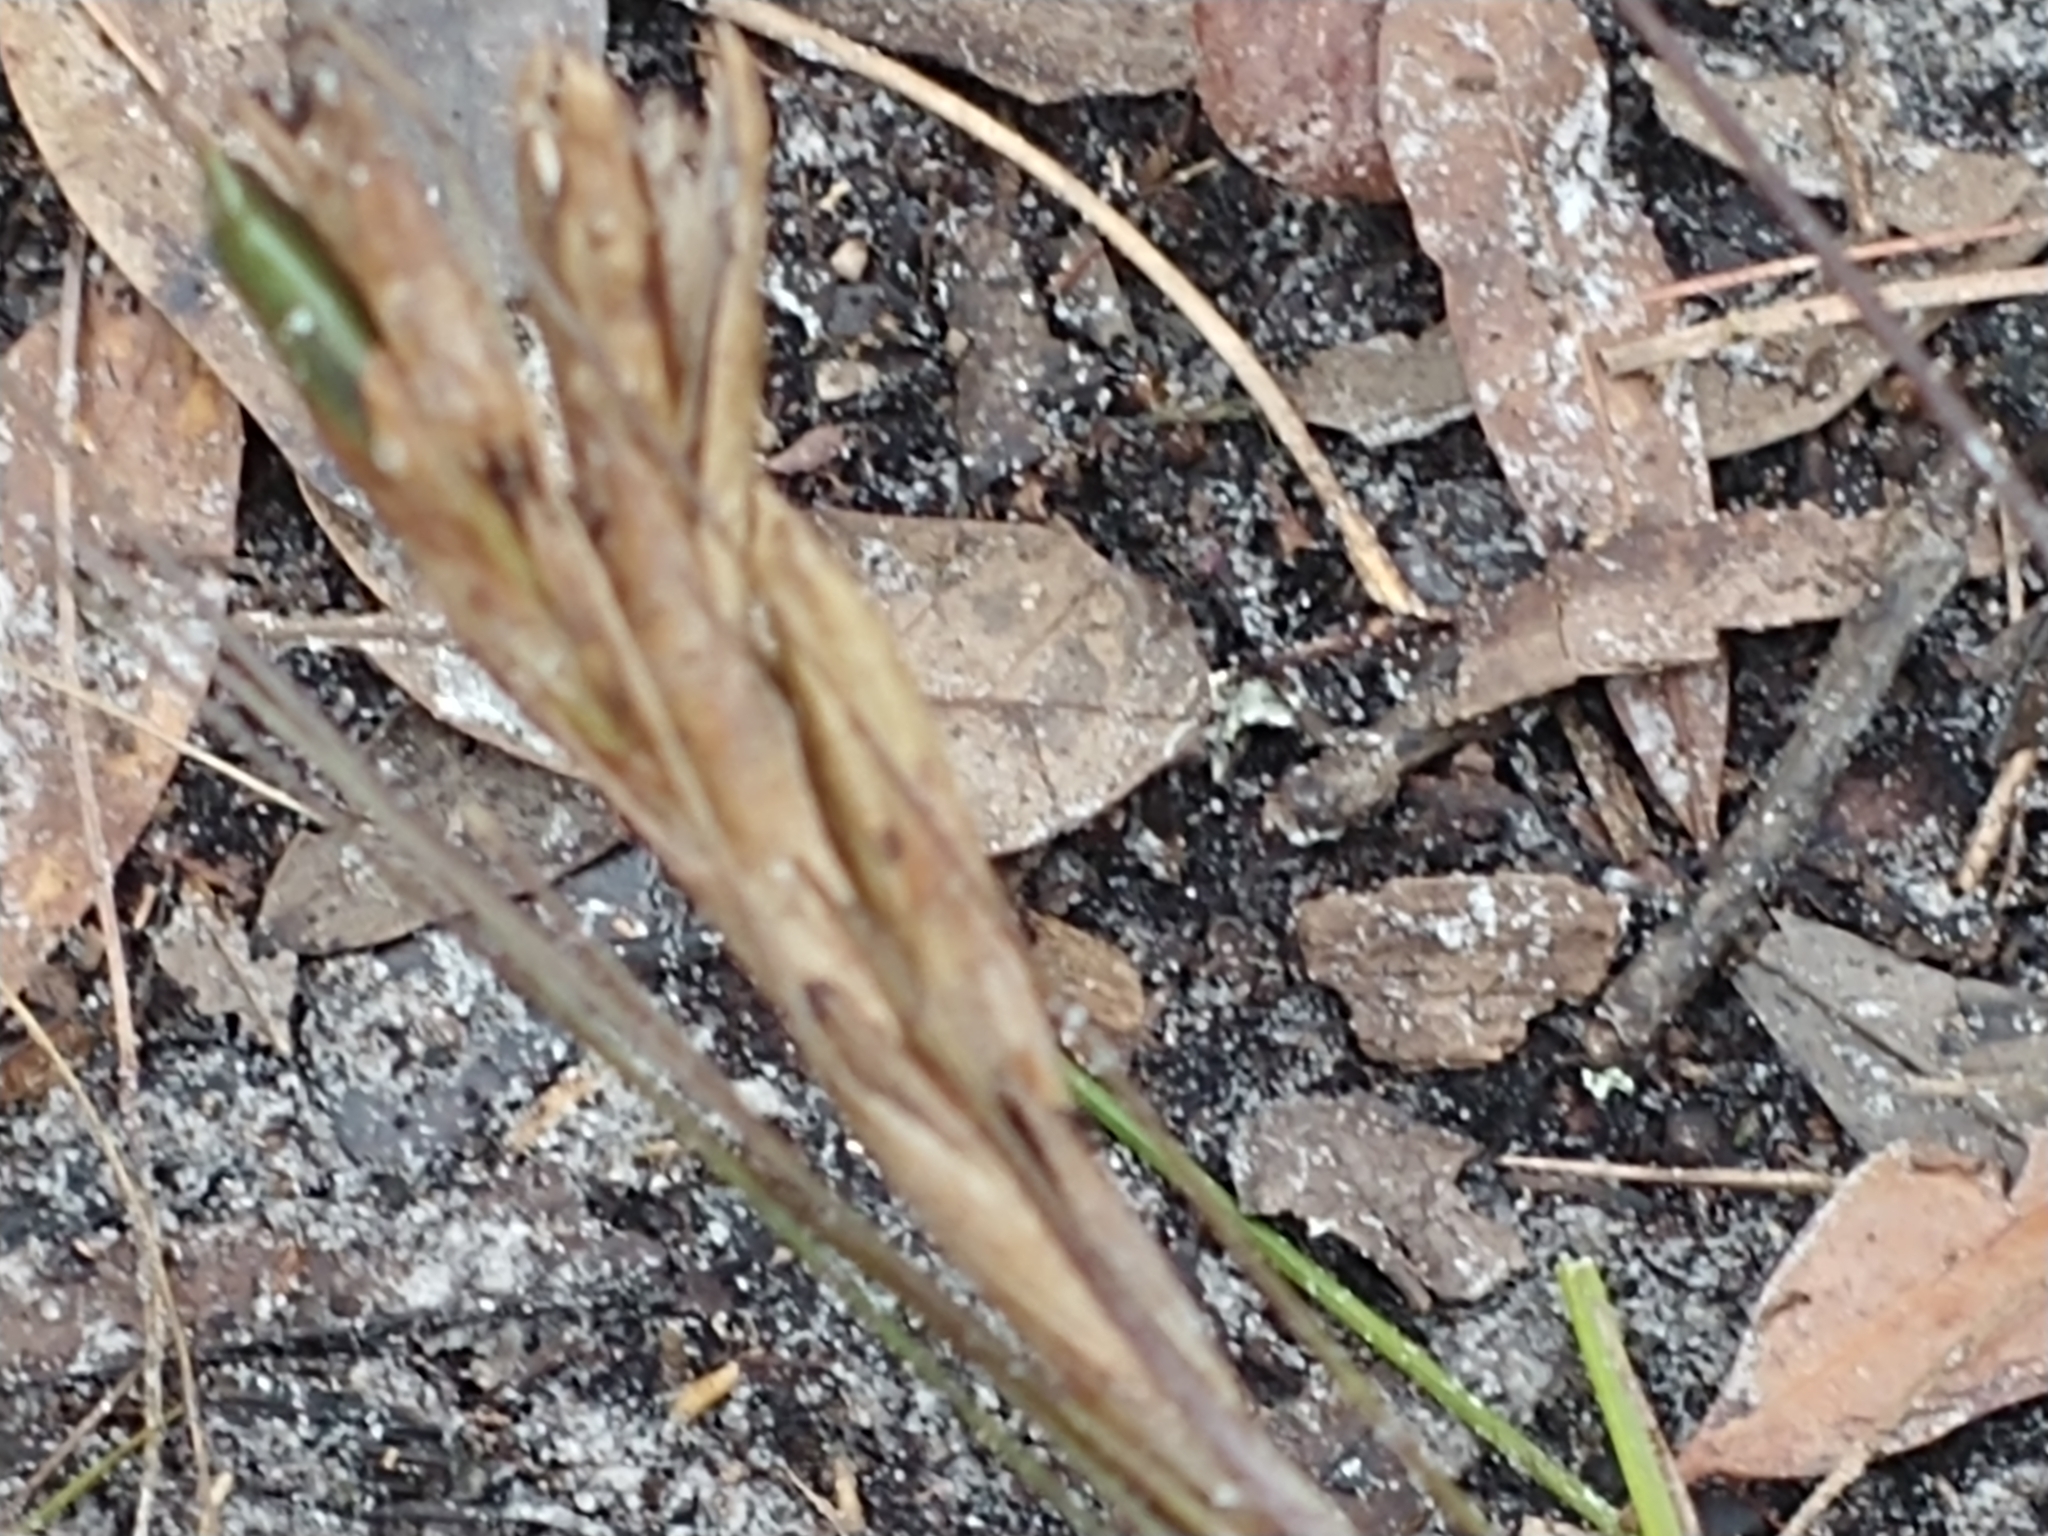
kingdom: Plantae
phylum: Tracheophyta
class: Liliopsida
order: Poales
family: Bromeliaceae
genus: Tillandsia
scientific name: Tillandsia setacea
